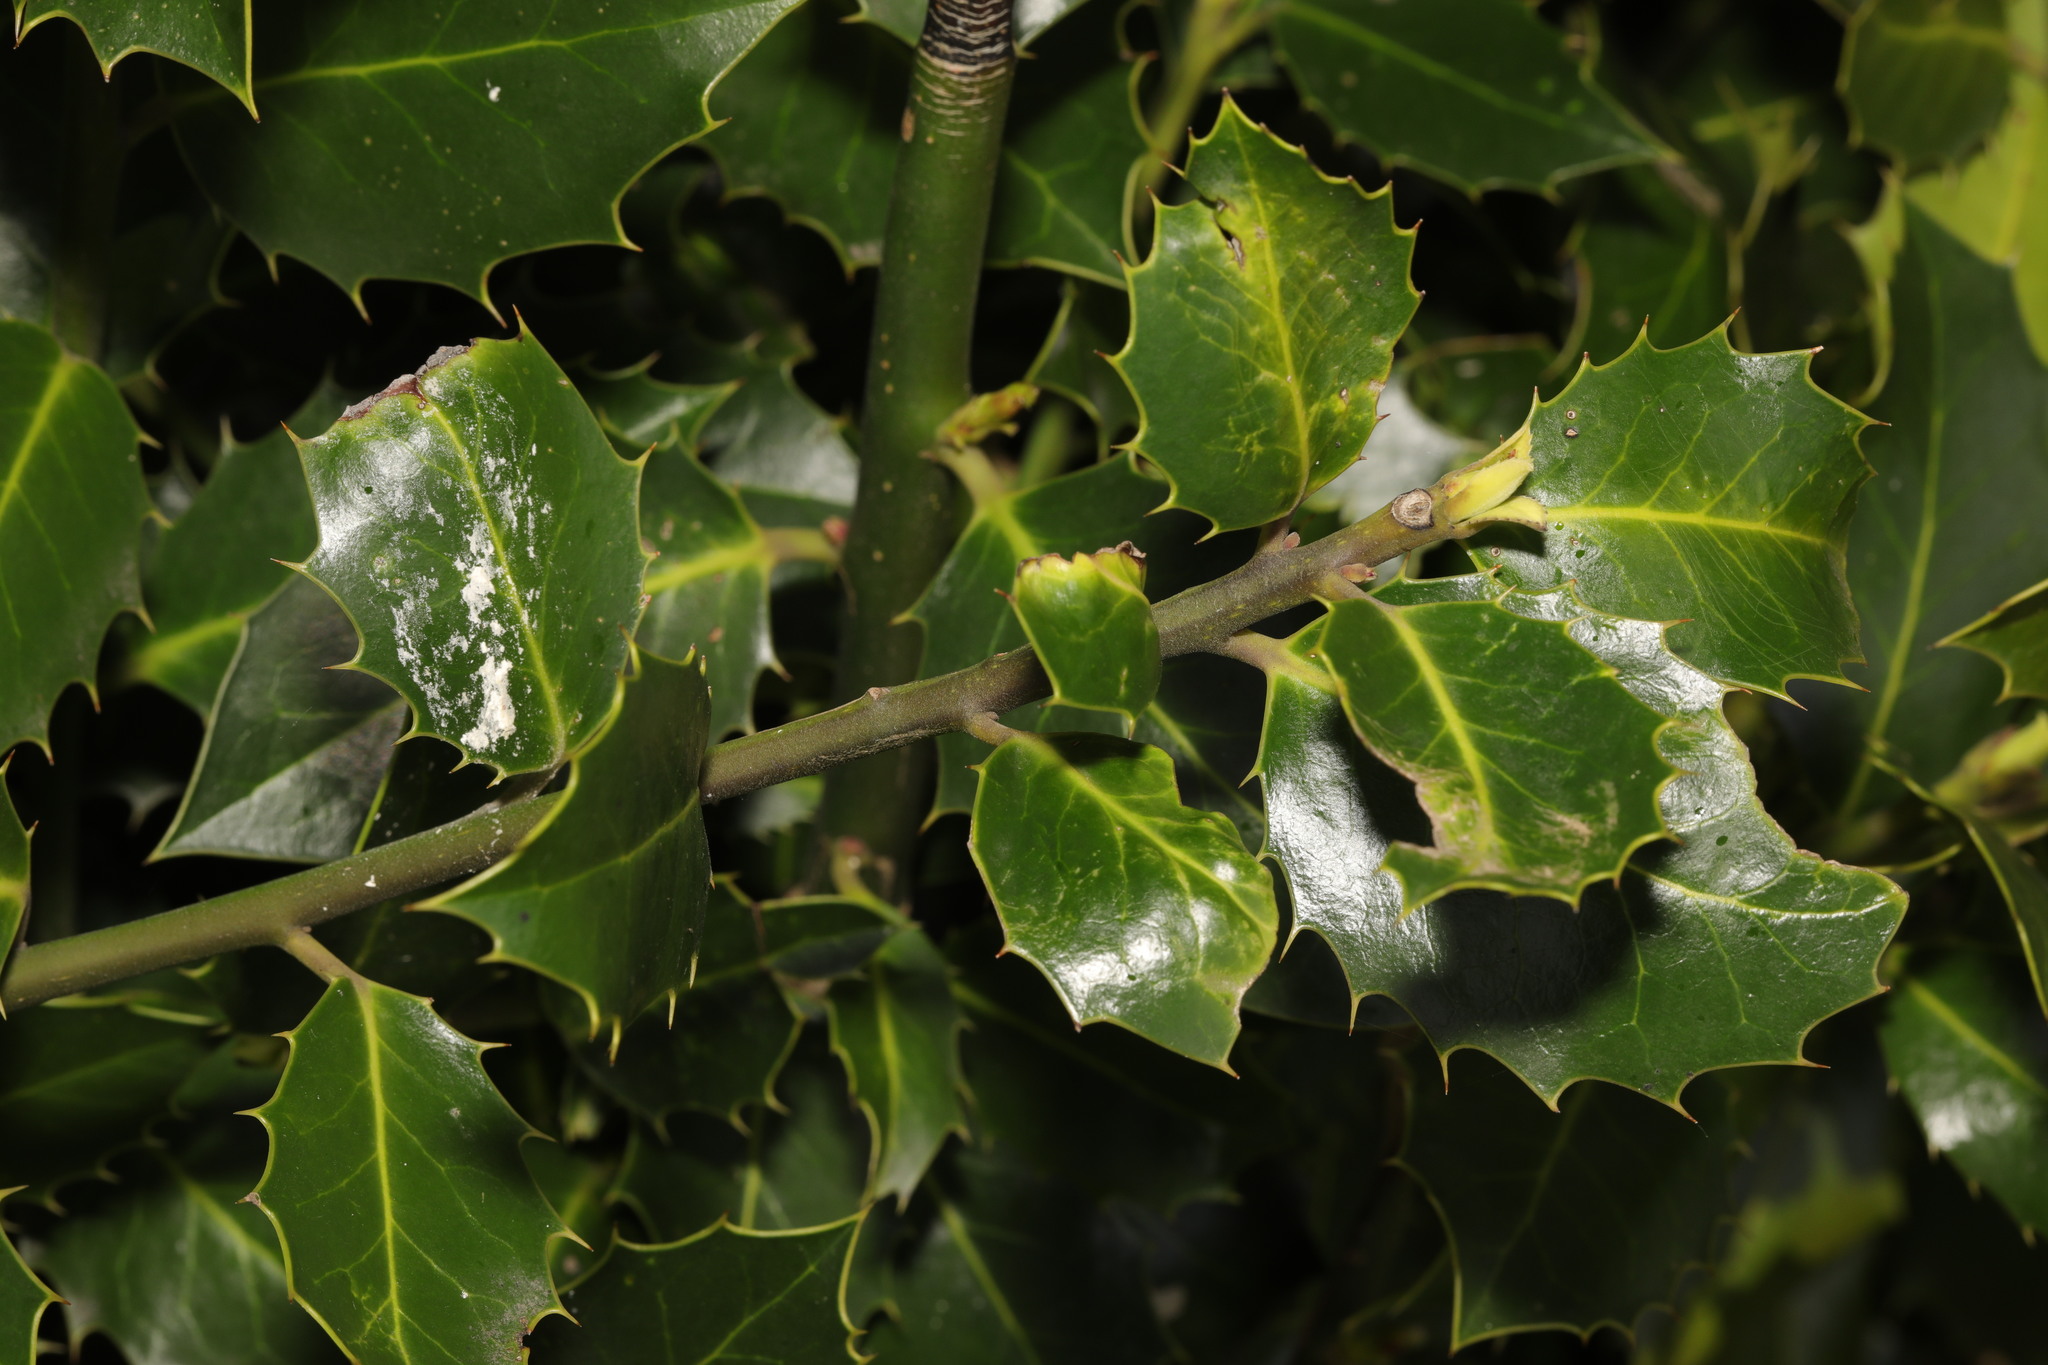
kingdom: Plantae
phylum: Tracheophyta
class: Magnoliopsida
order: Aquifoliales
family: Aquifoliaceae
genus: Ilex
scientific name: Ilex aquifolium
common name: English holly
